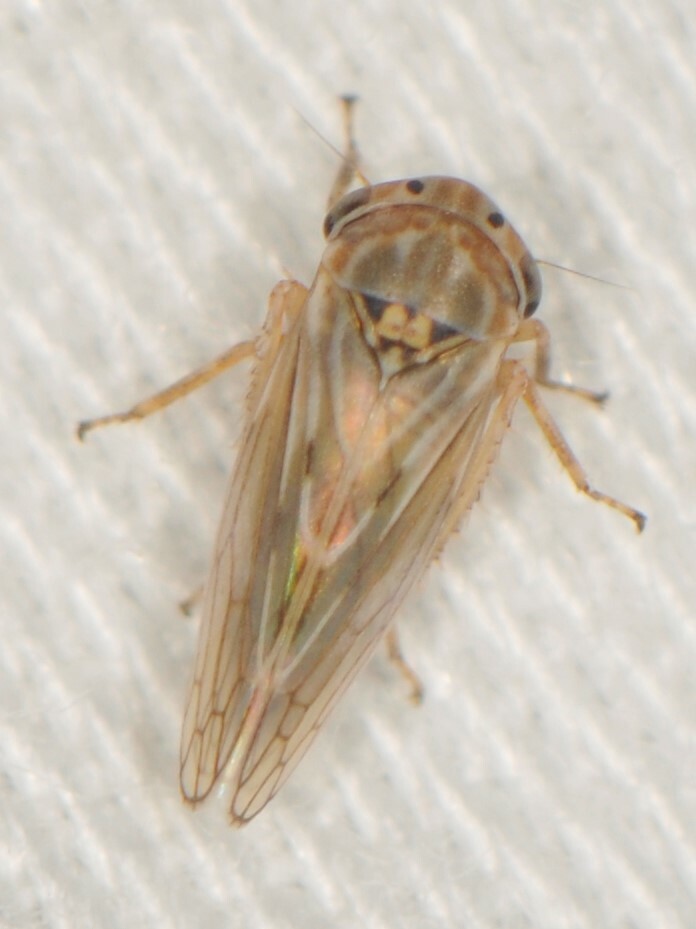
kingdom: Animalia
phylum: Arthropoda
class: Insecta
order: Hemiptera
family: Cicadellidae
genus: Ceratagallia
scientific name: Ceratagallia
